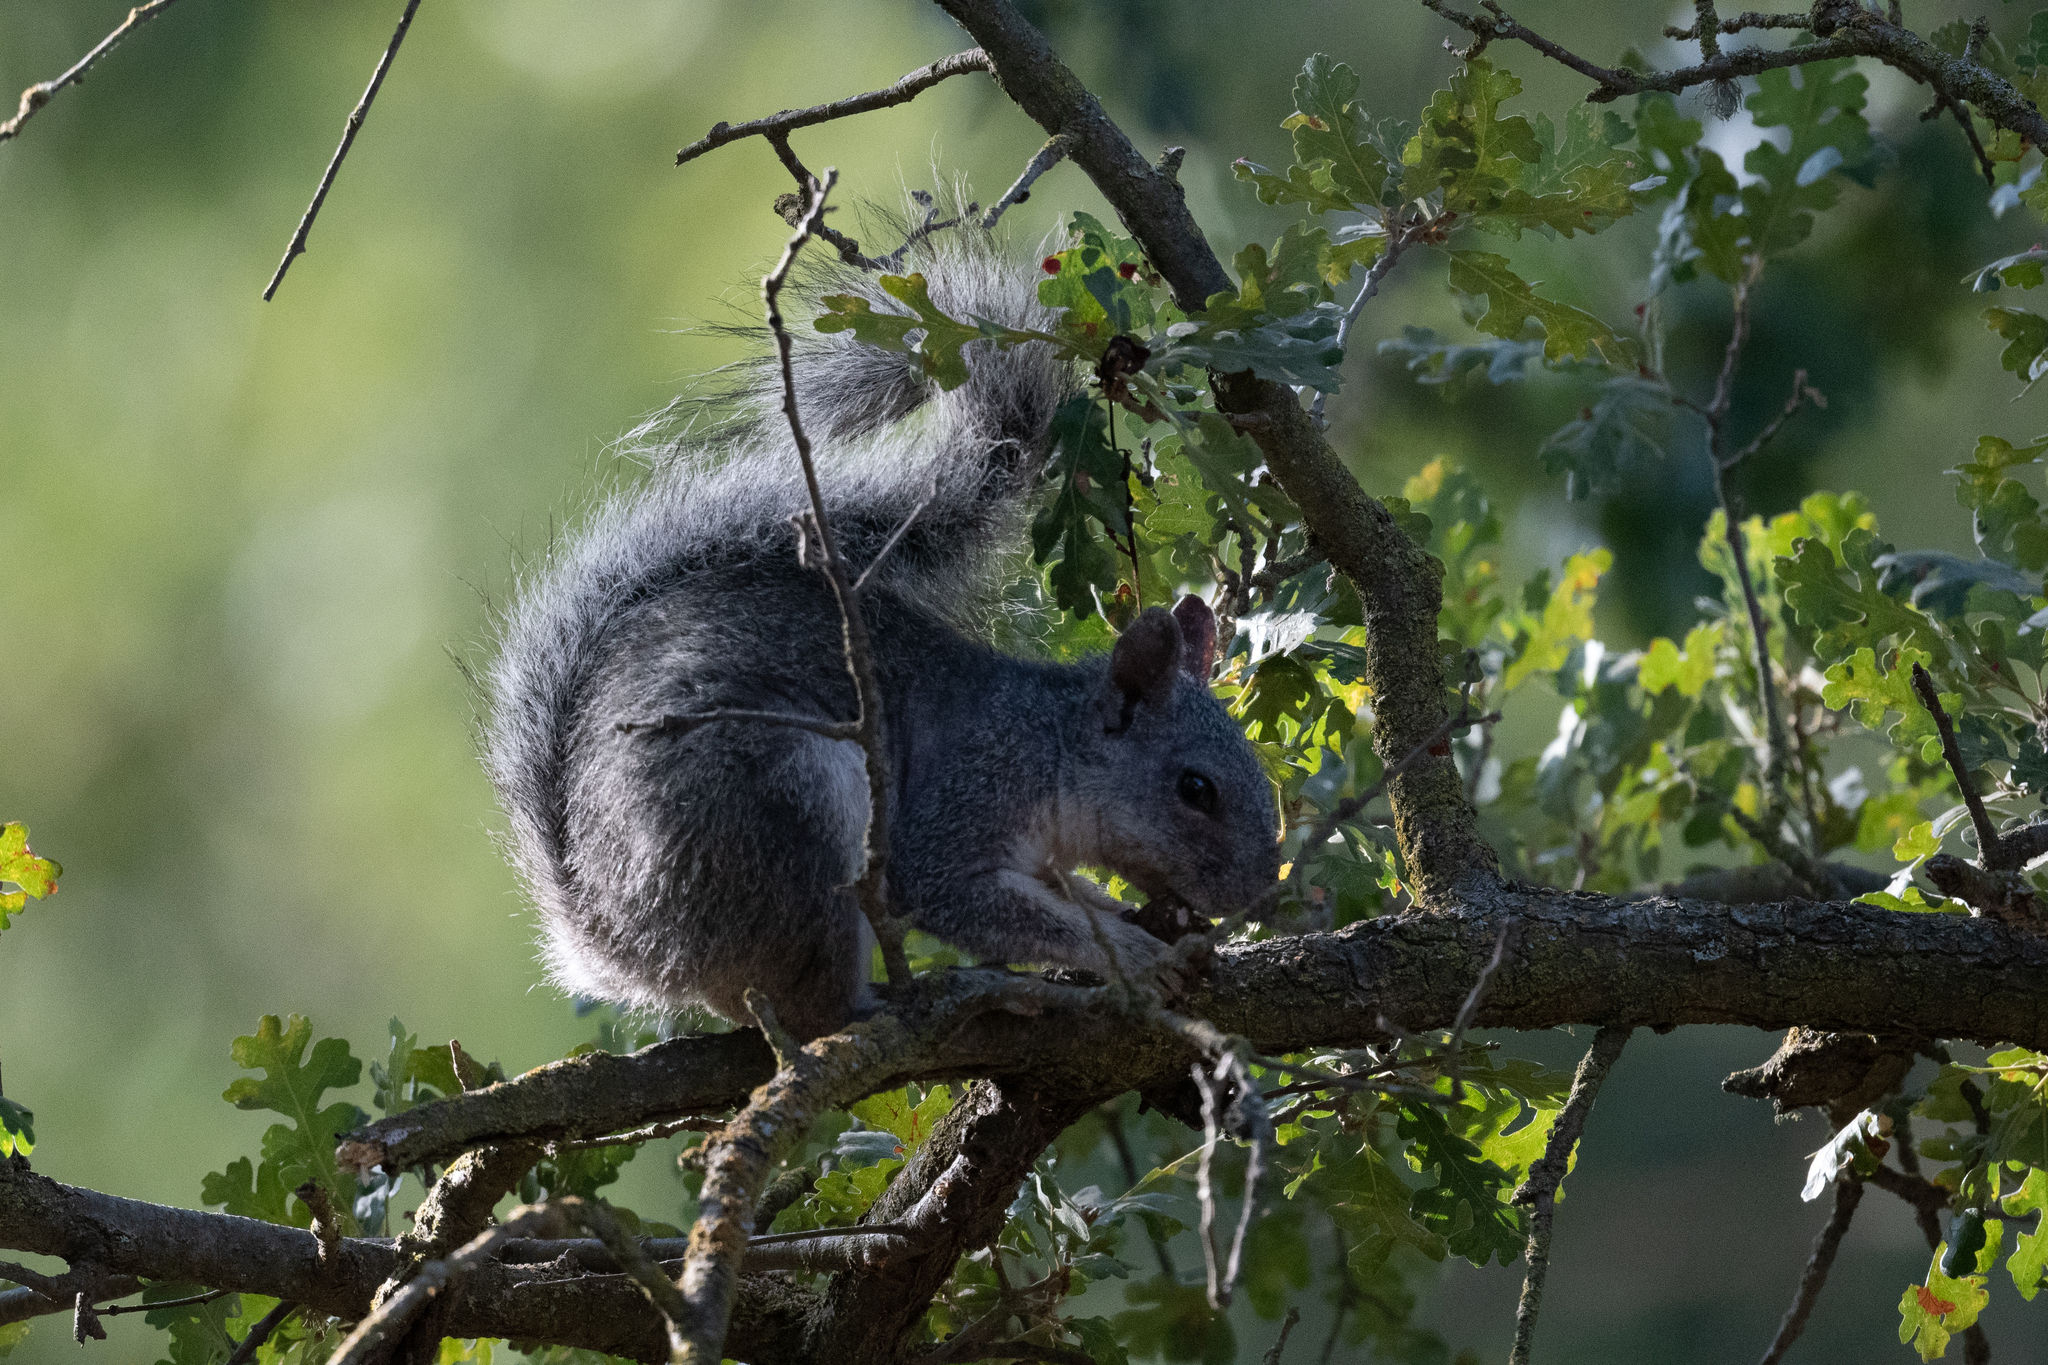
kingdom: Animalia
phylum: Chordata
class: Mammalia
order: Rodentia
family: Sciuridae
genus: Sciurus
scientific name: Sciurus griseus
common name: Western gray squirrel
